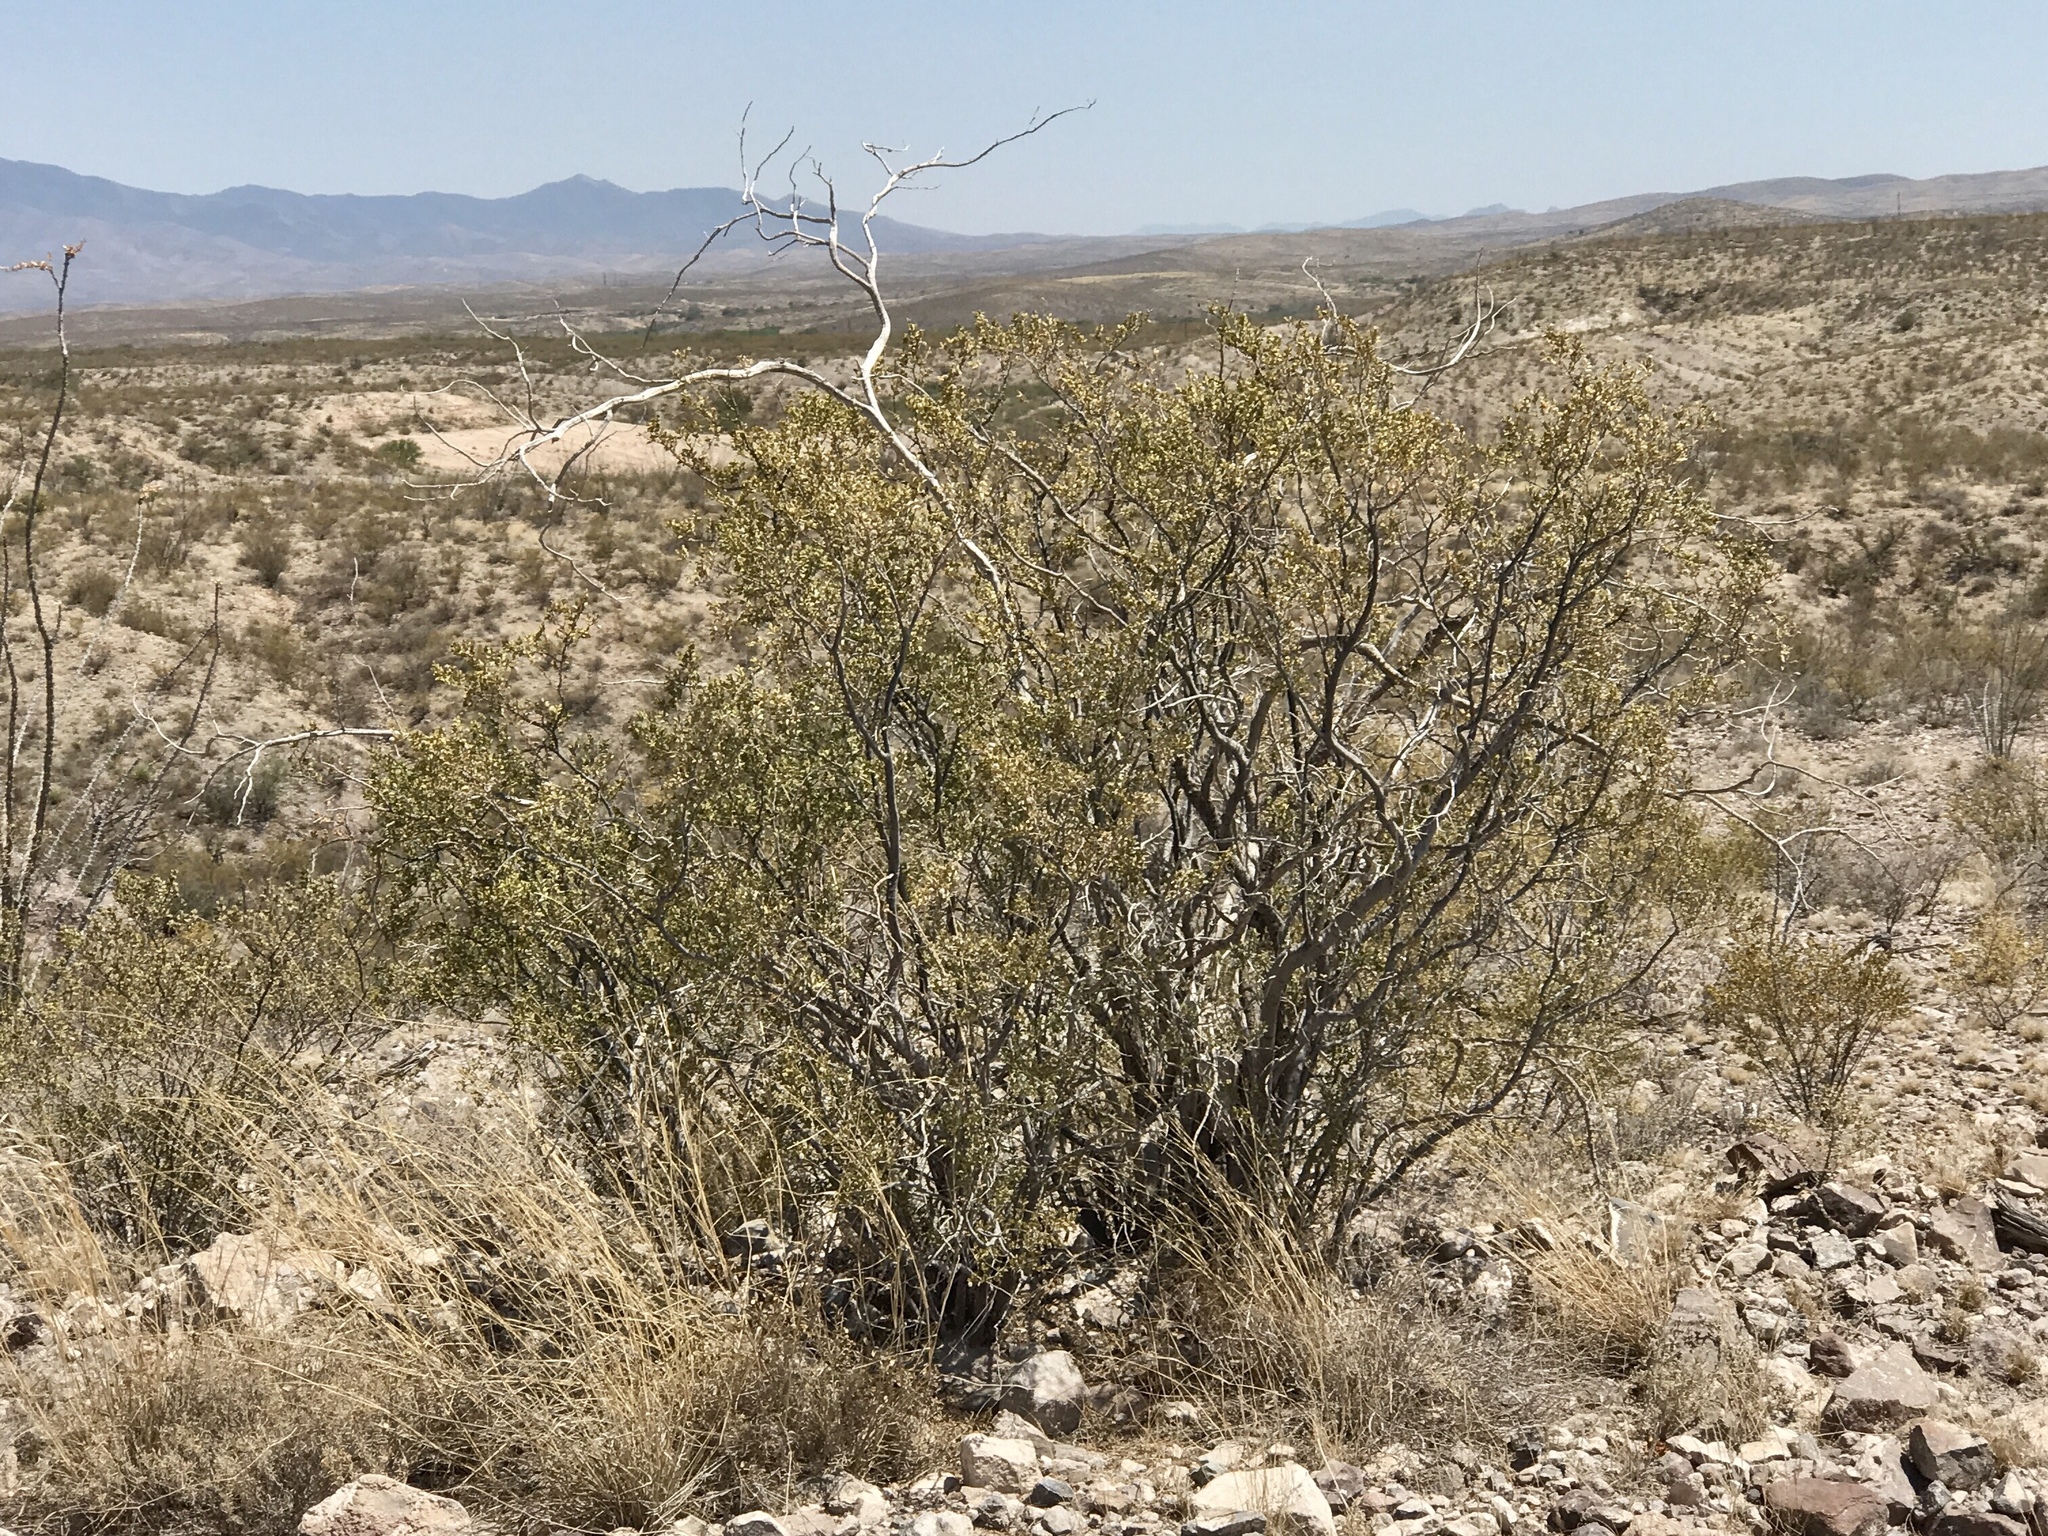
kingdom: Plantae
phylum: Tracheophyta
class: Magnoliopsida
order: Zygophyllales
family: Zygophyllaceae
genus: Larrea
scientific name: Larrea tridentata
